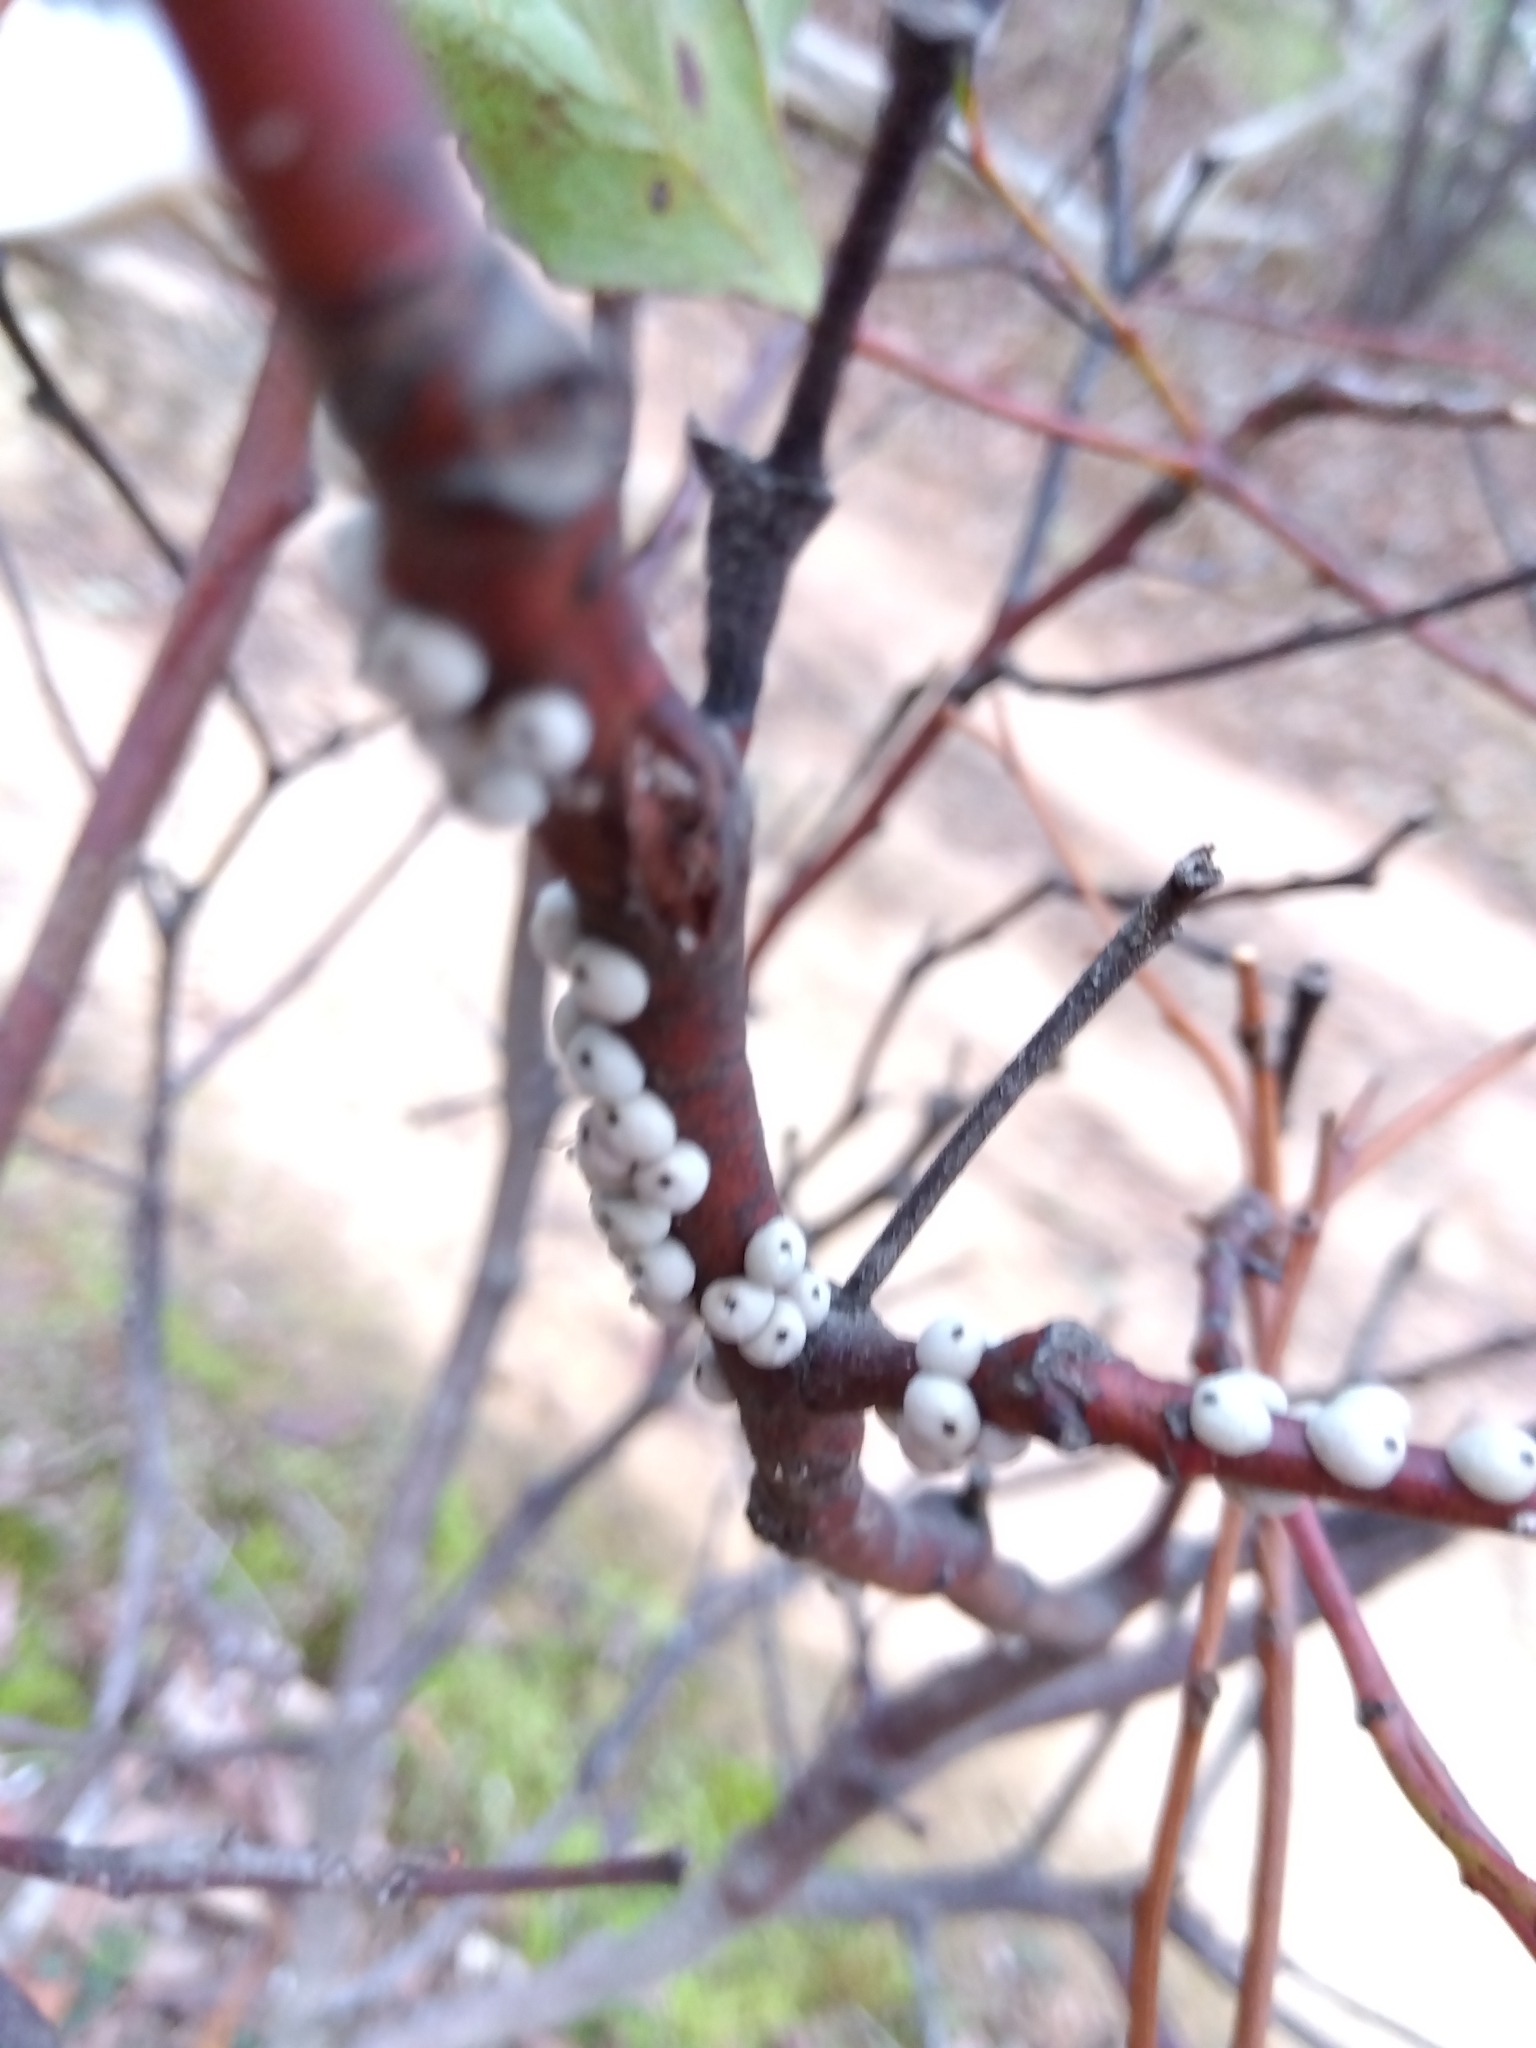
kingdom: Animalia
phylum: Arthropoda
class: Insecta
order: Hemiptera
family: Coccidae
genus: Cryptes
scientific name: Cryptes baccatus
